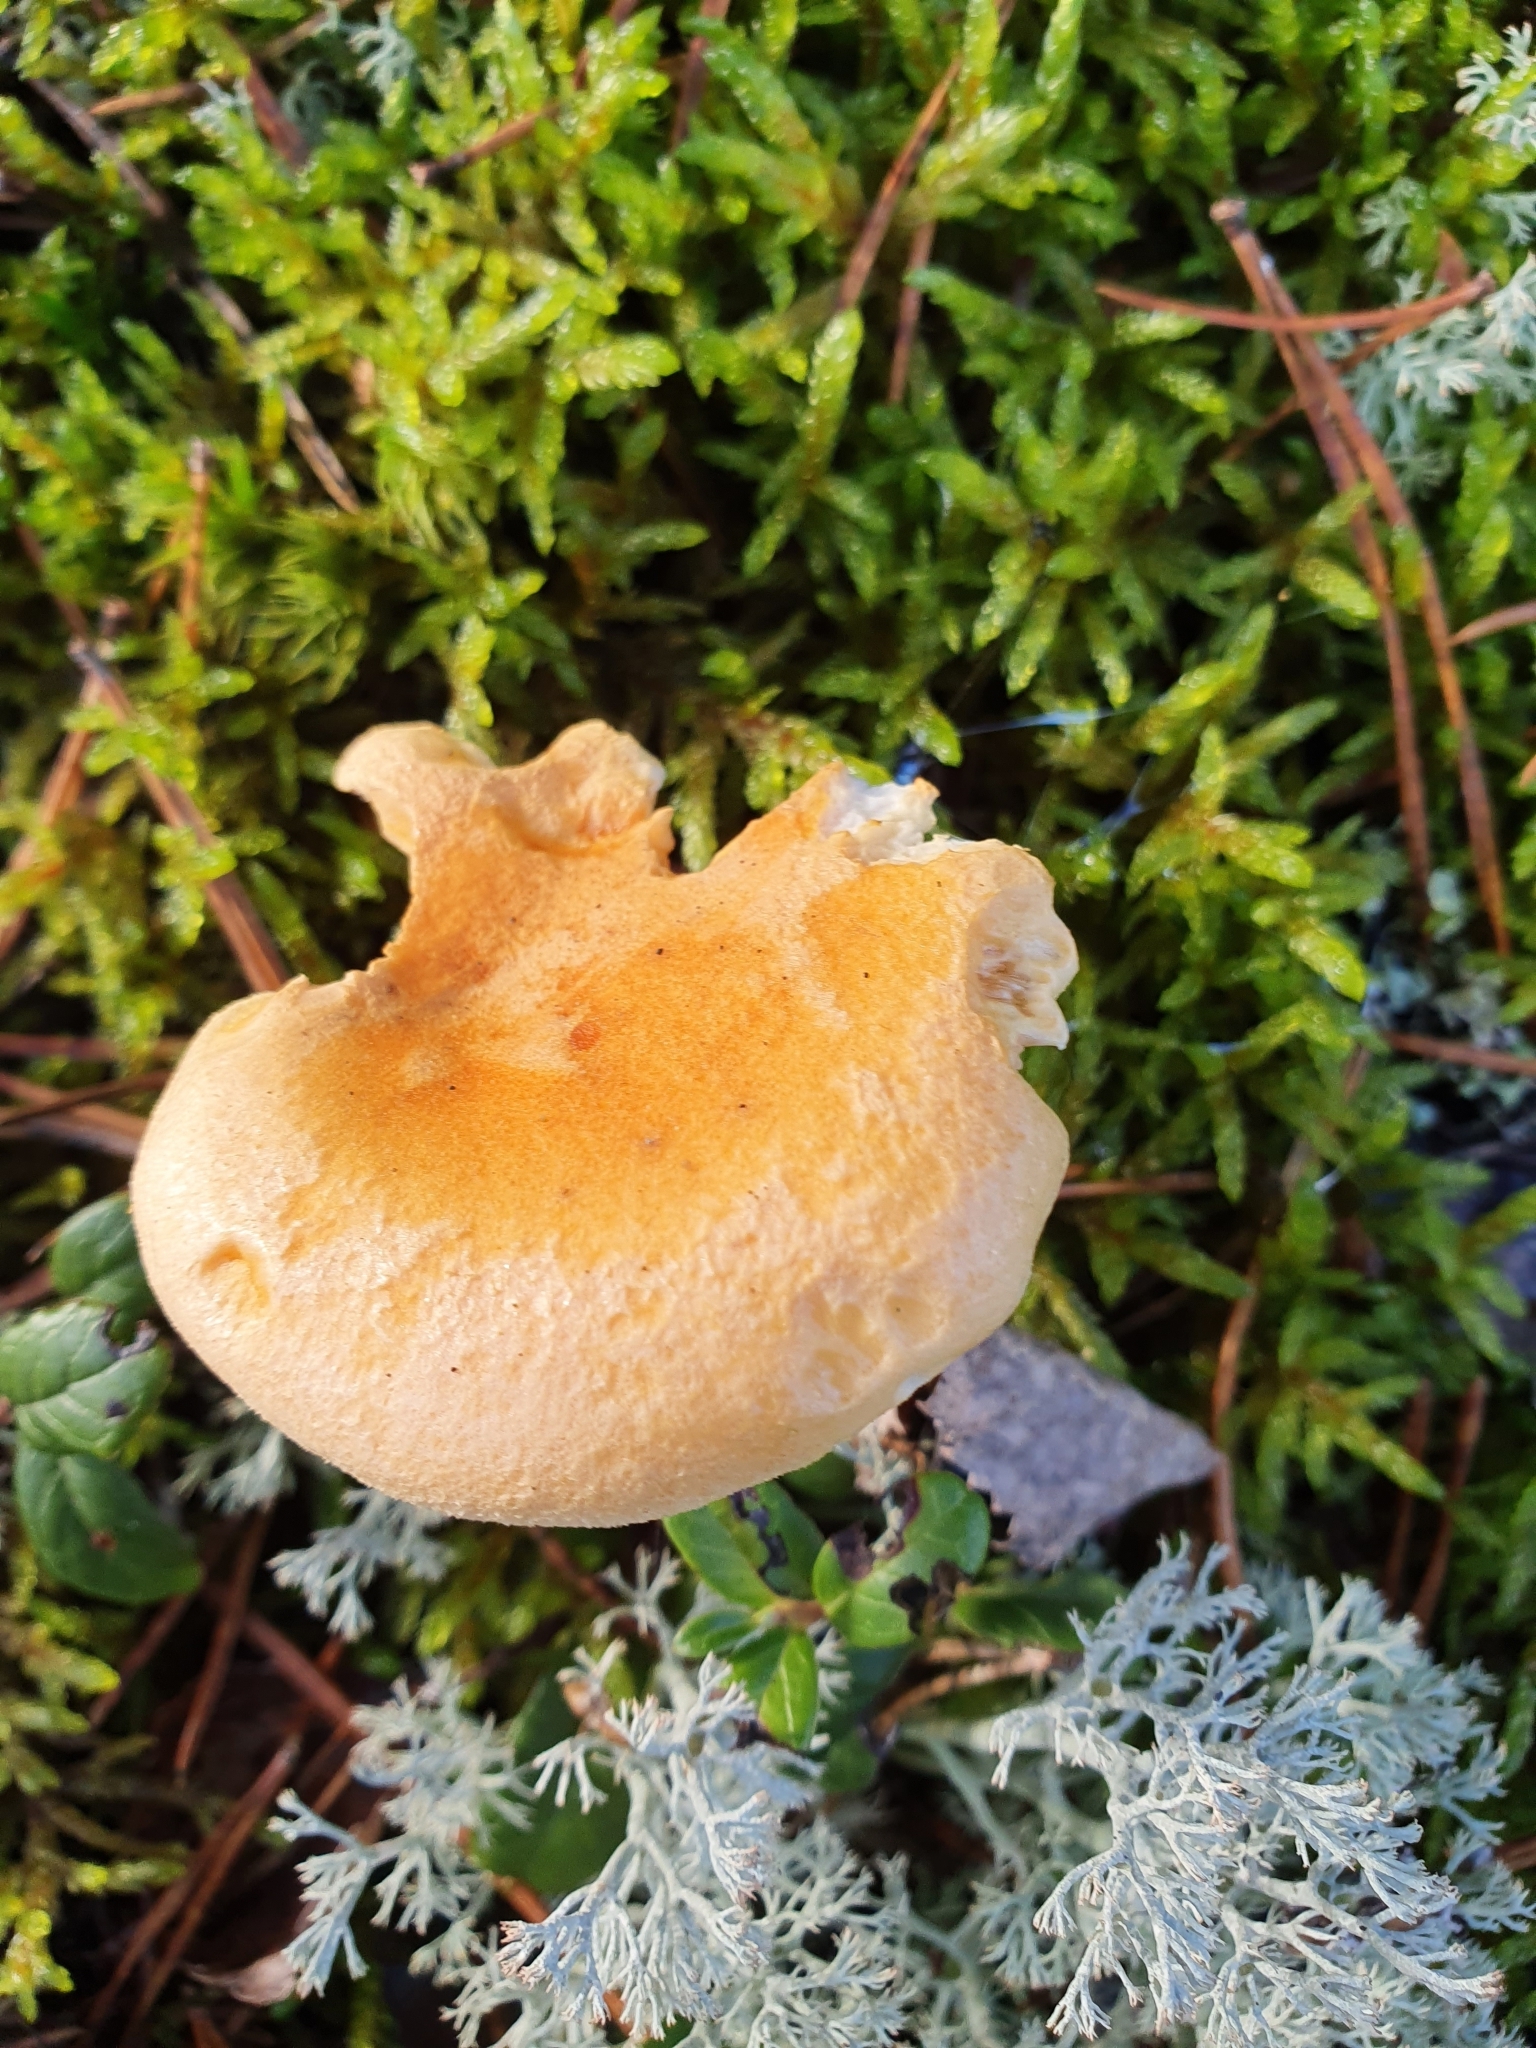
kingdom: Fungi
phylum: Basidiomycota
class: Agaricomycetes
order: Boletales
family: Hygrophoropsidaceae
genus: Hygrophoropsis
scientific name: Hygrophoropsis aurantiaca
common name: False chanterelle
